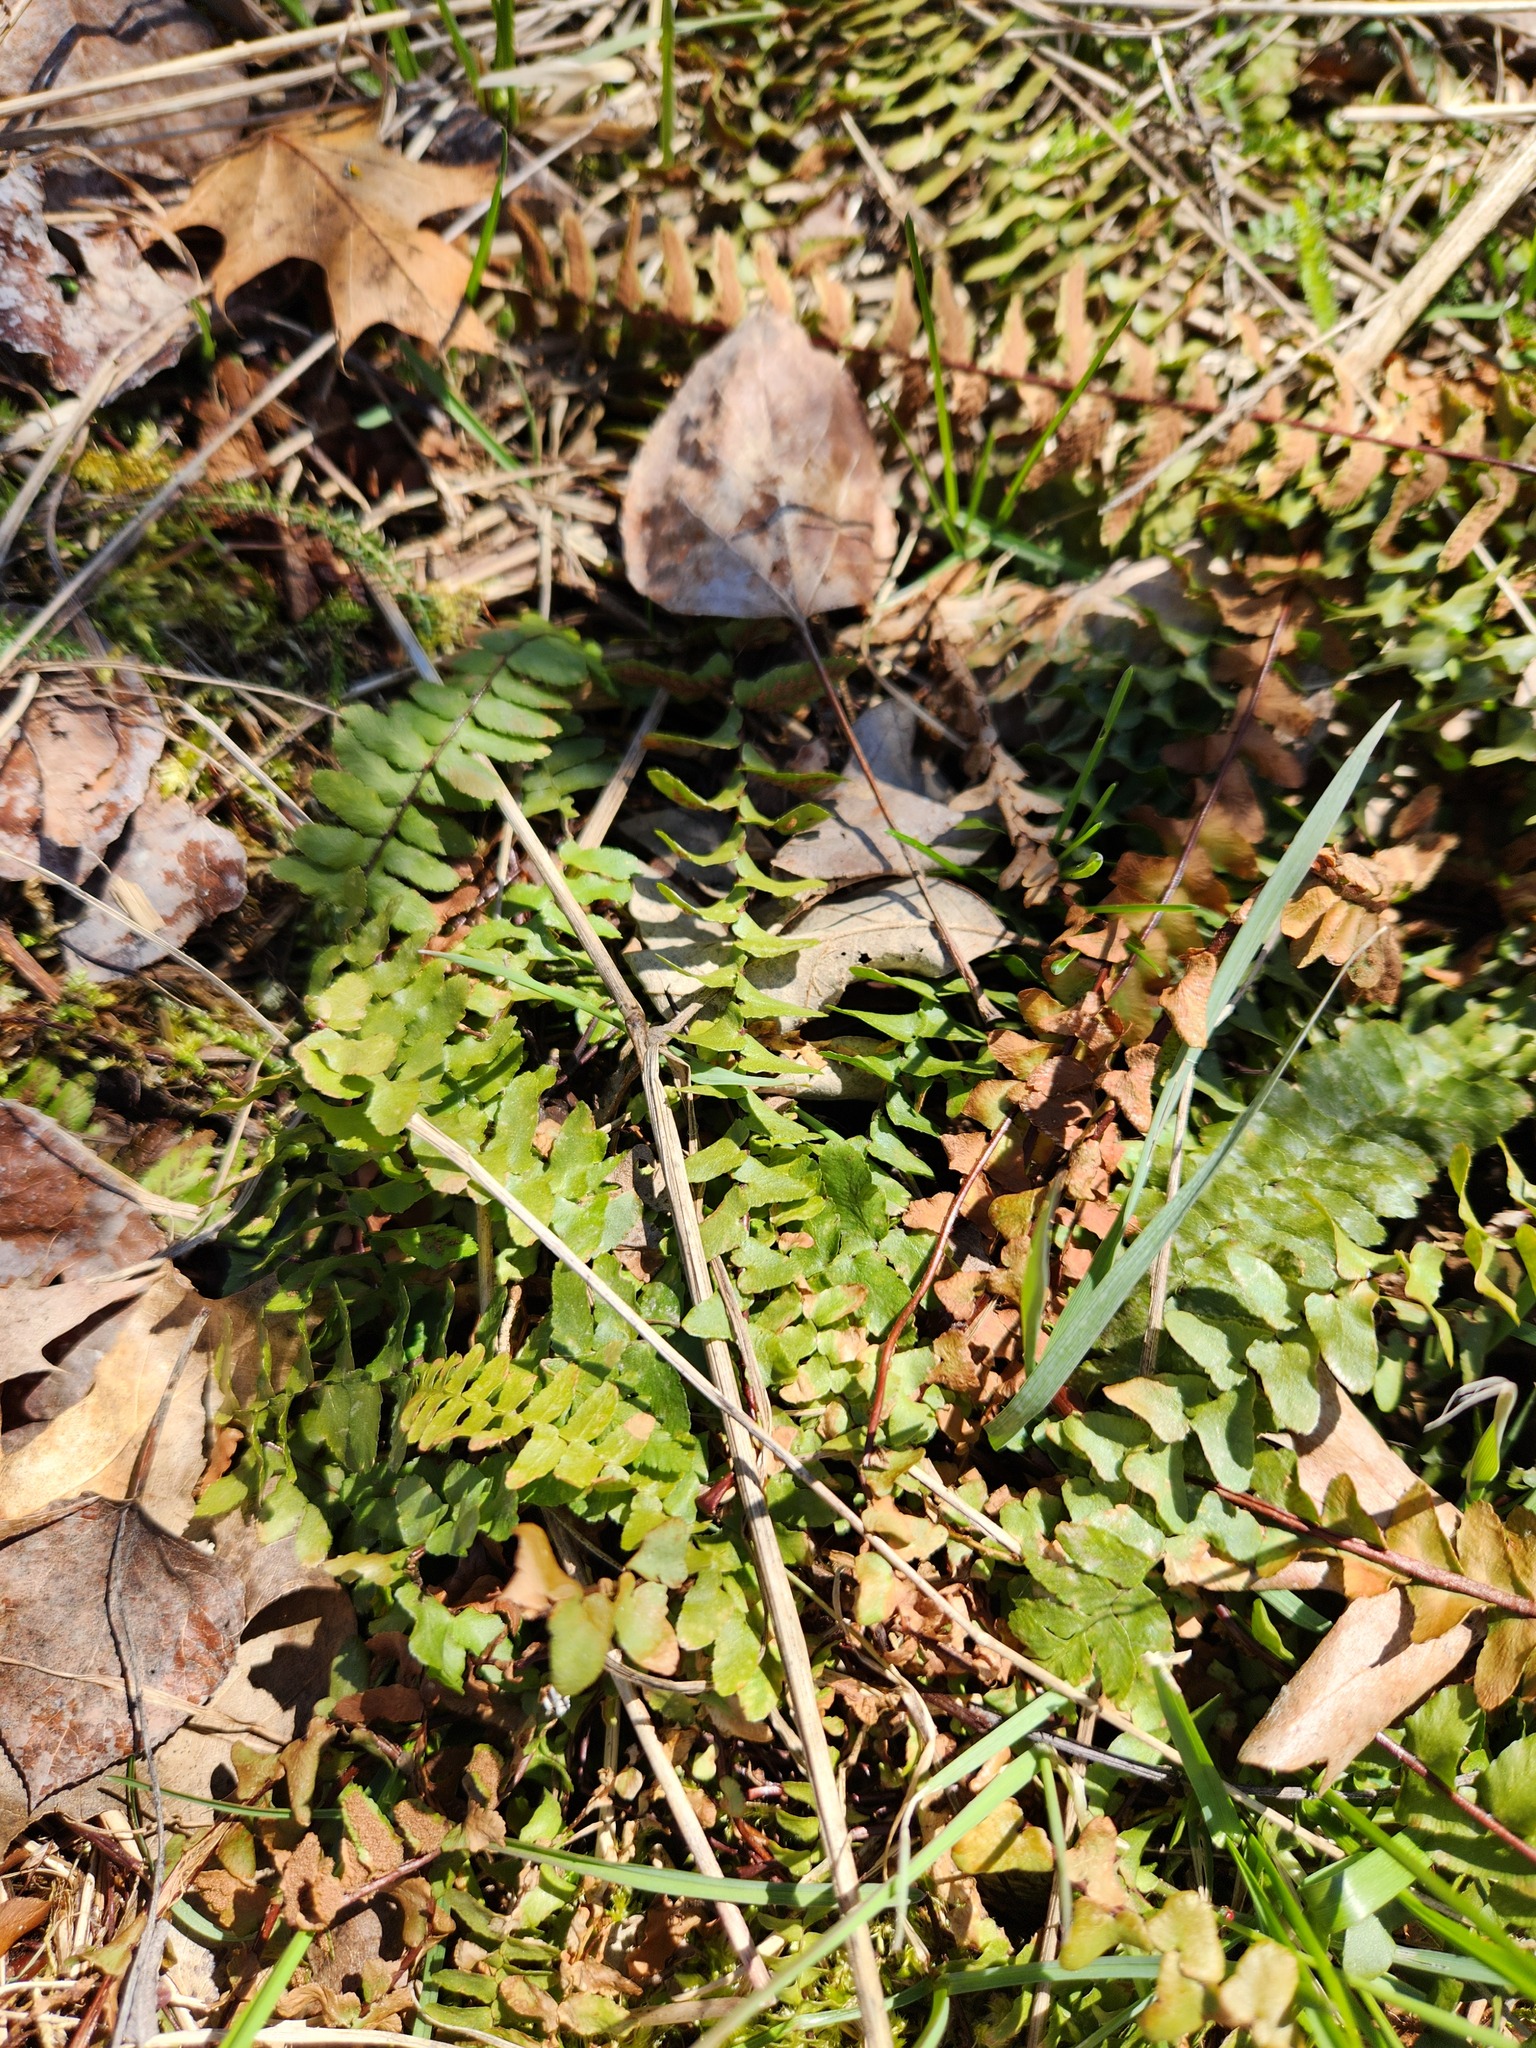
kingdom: Plantae
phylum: Tracheophyta
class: Polypodiopsida
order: Polypodiales
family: Aspleniaceae
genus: Asplenium
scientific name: Asplenium platyneuron
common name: Ebony spleenwort
